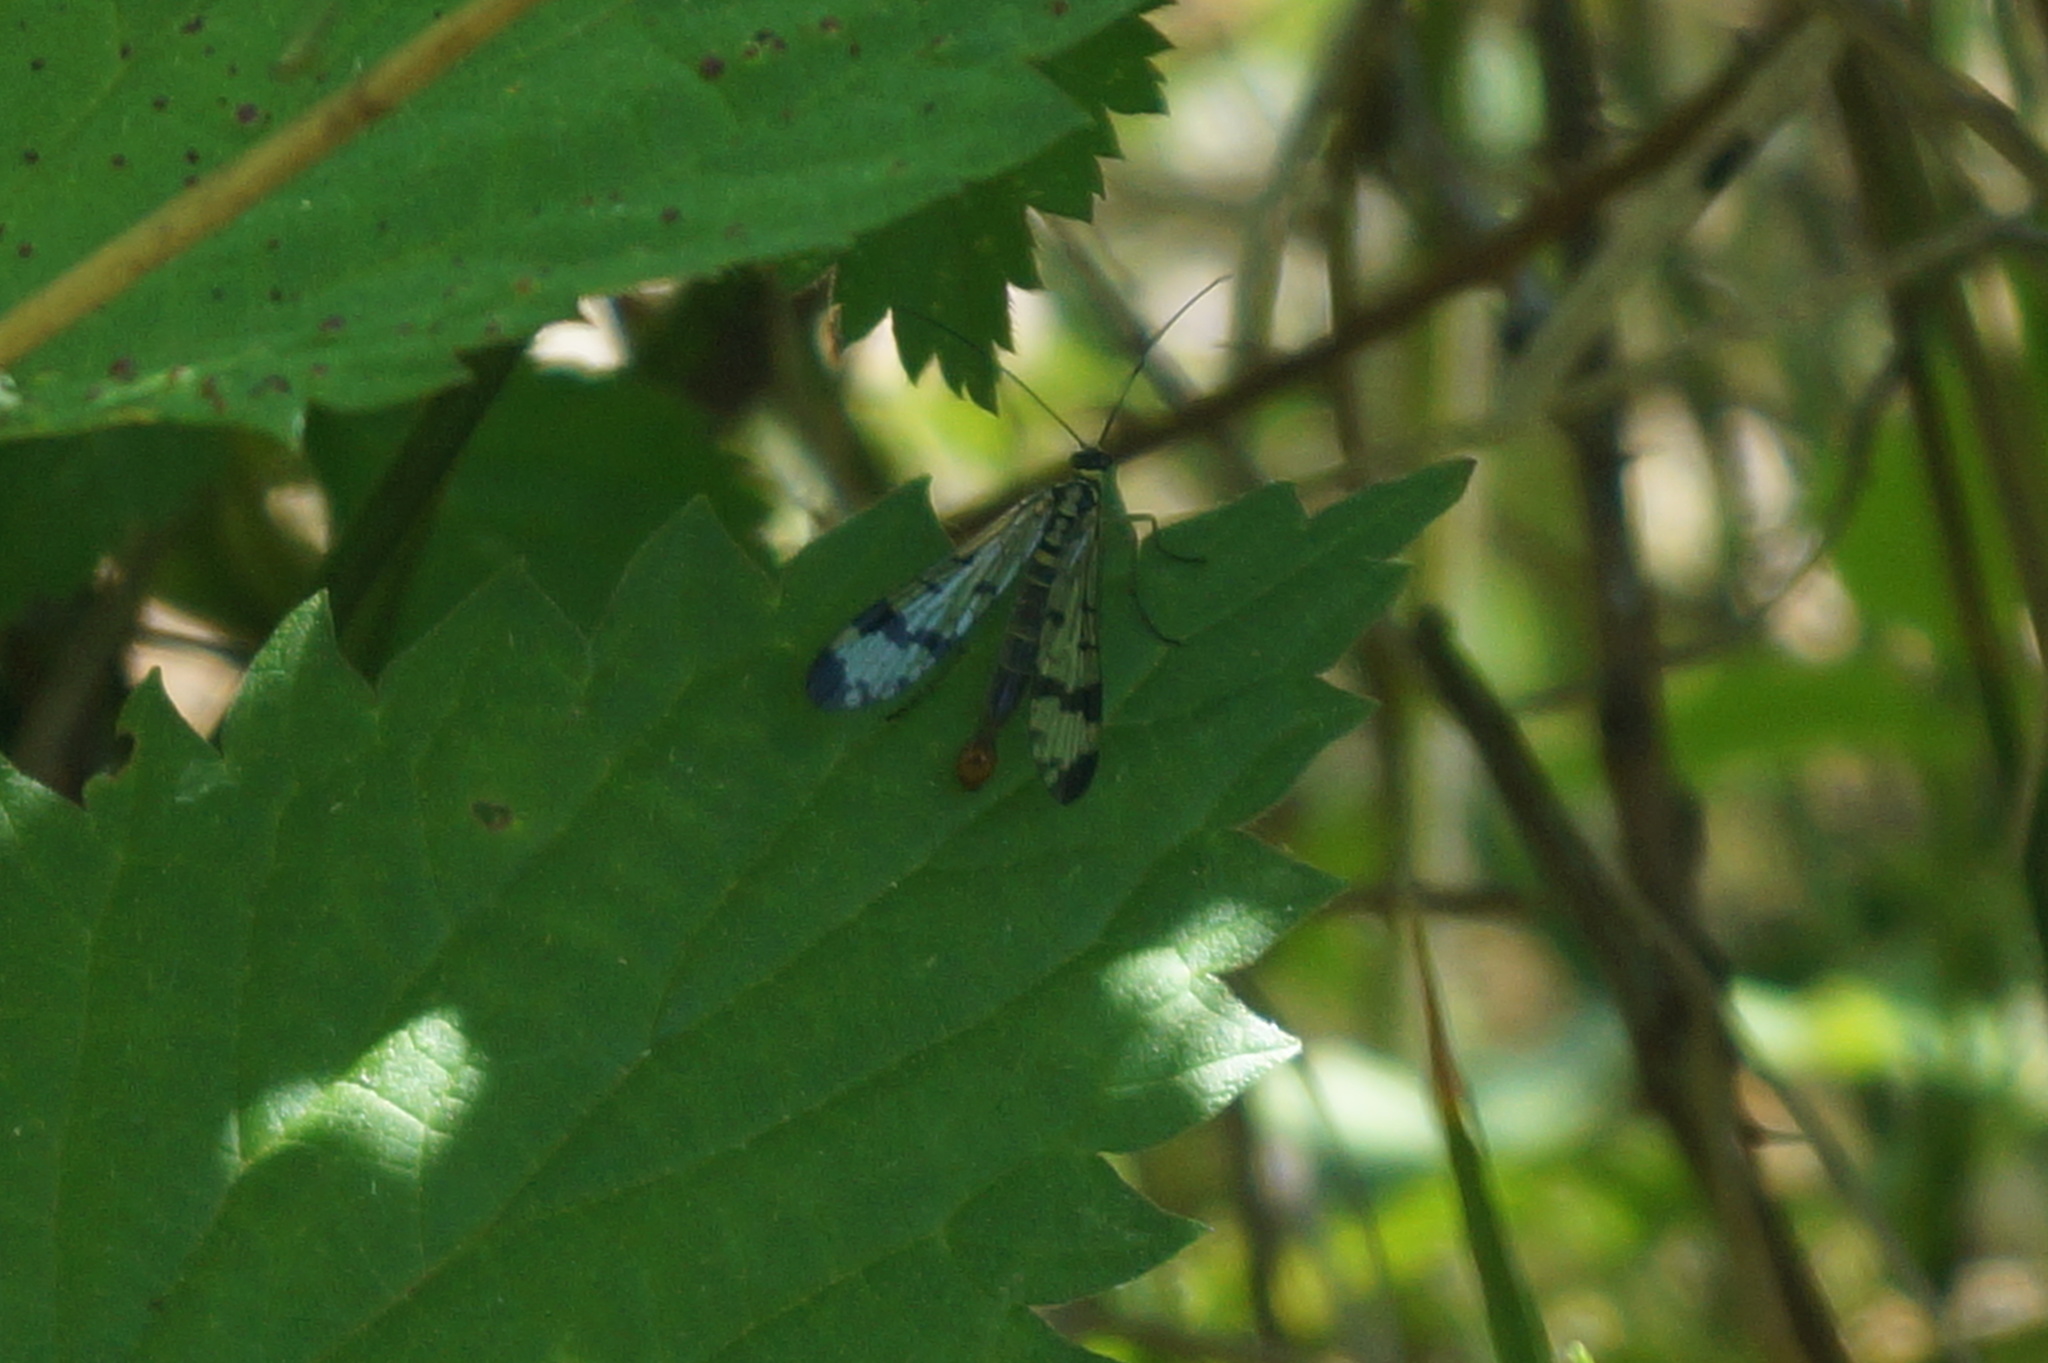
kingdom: Animalia
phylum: Arthropoda
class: Insecta
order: Mecoptera
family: Panorpidae
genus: Panorpa
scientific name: Panorpa germanica
